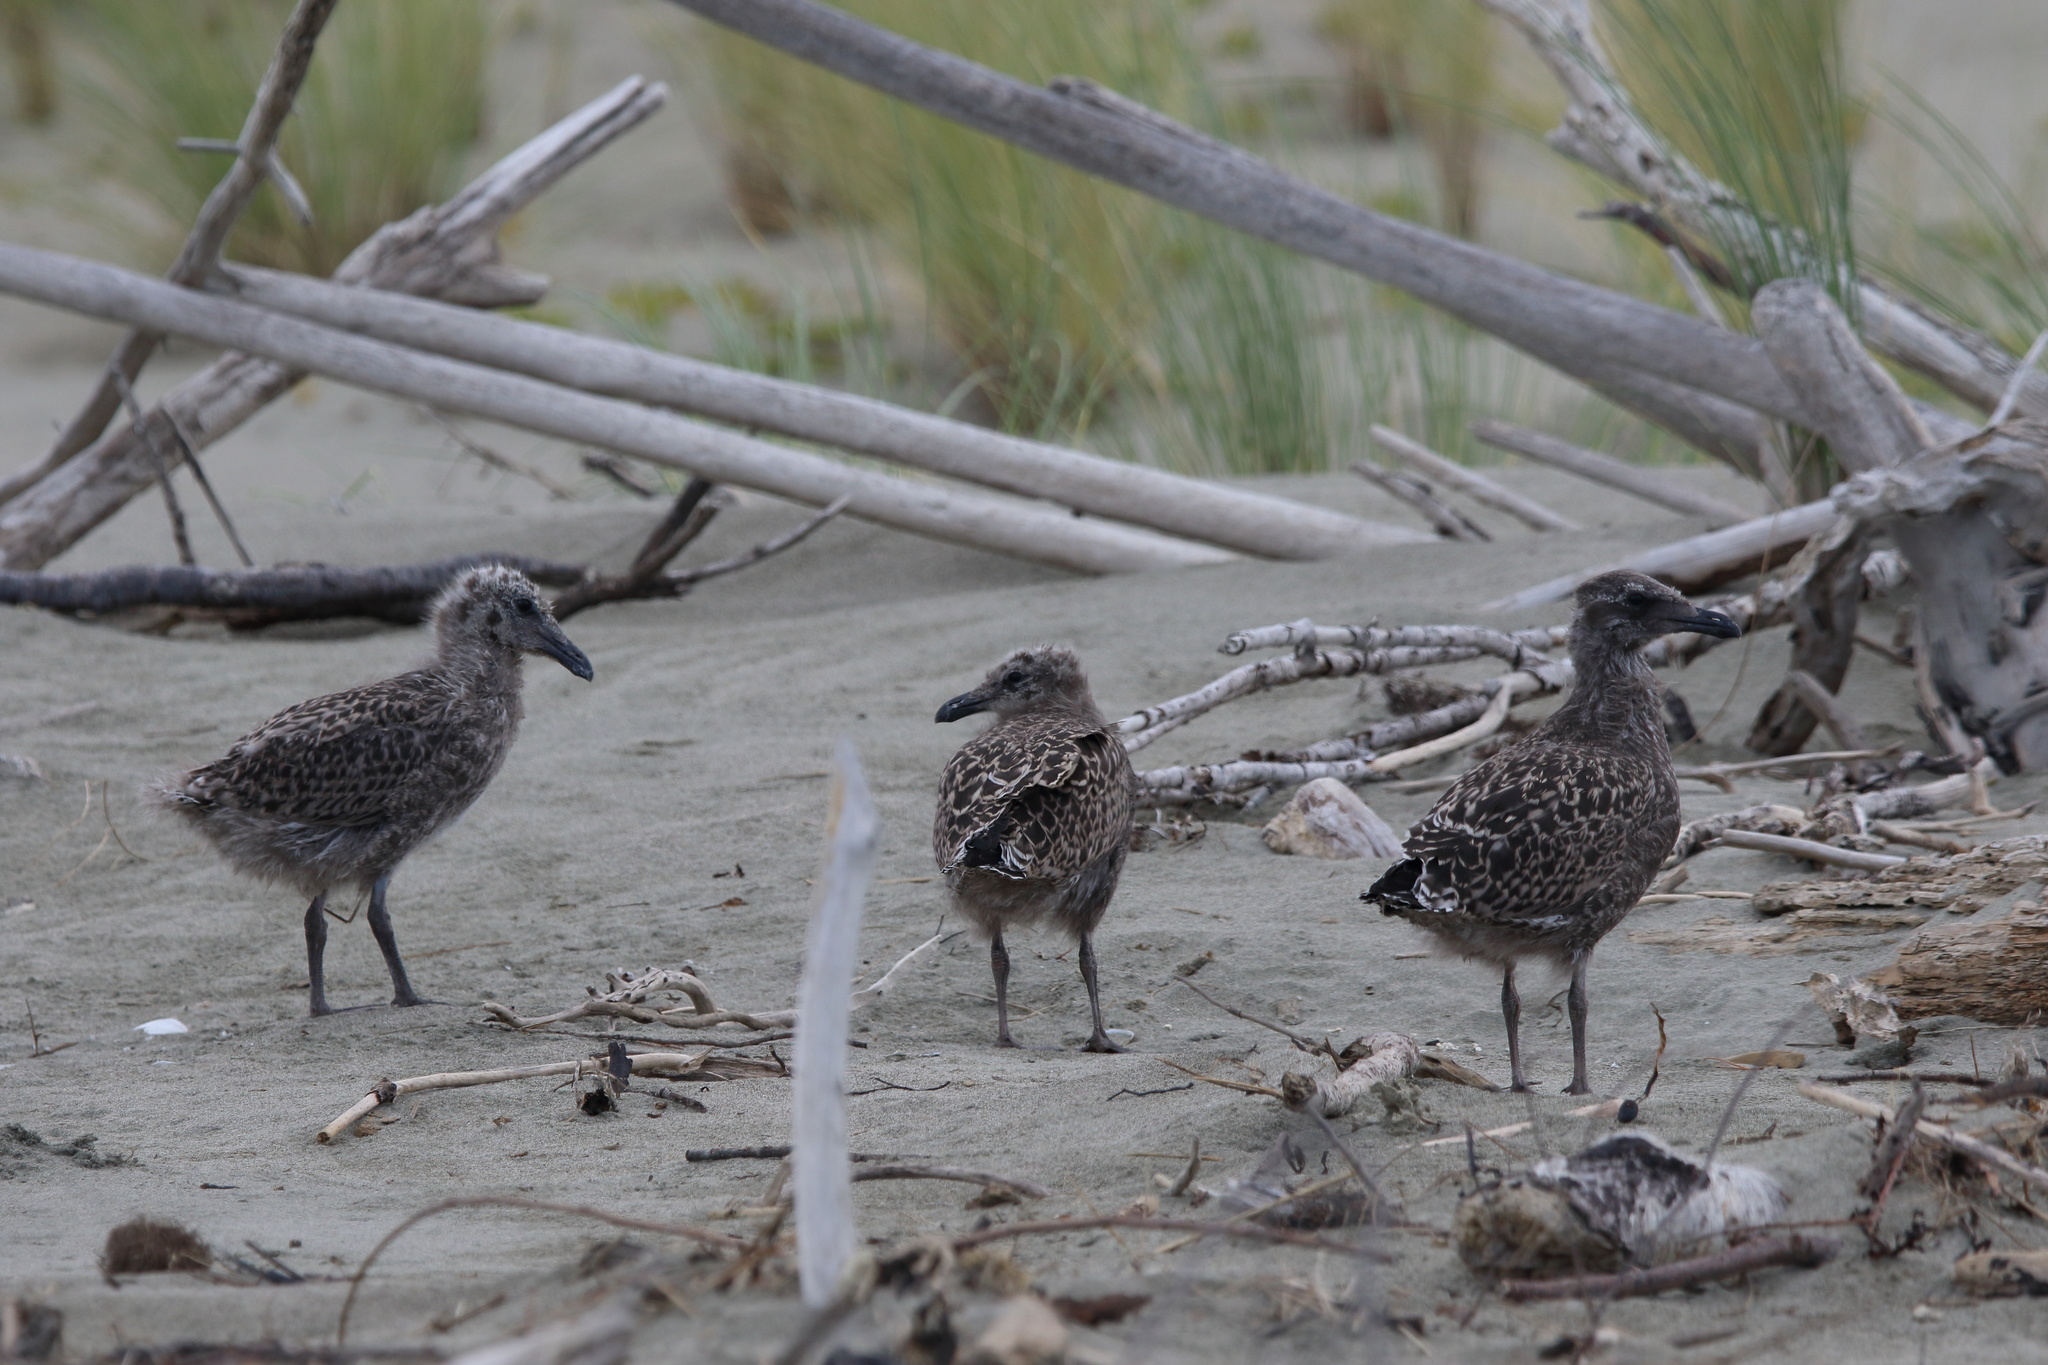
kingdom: Animalia
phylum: Chordata
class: Aves
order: Charadriiformes
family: Laridae
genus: Larus
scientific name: Larus dominicanus
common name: Kelp gull
